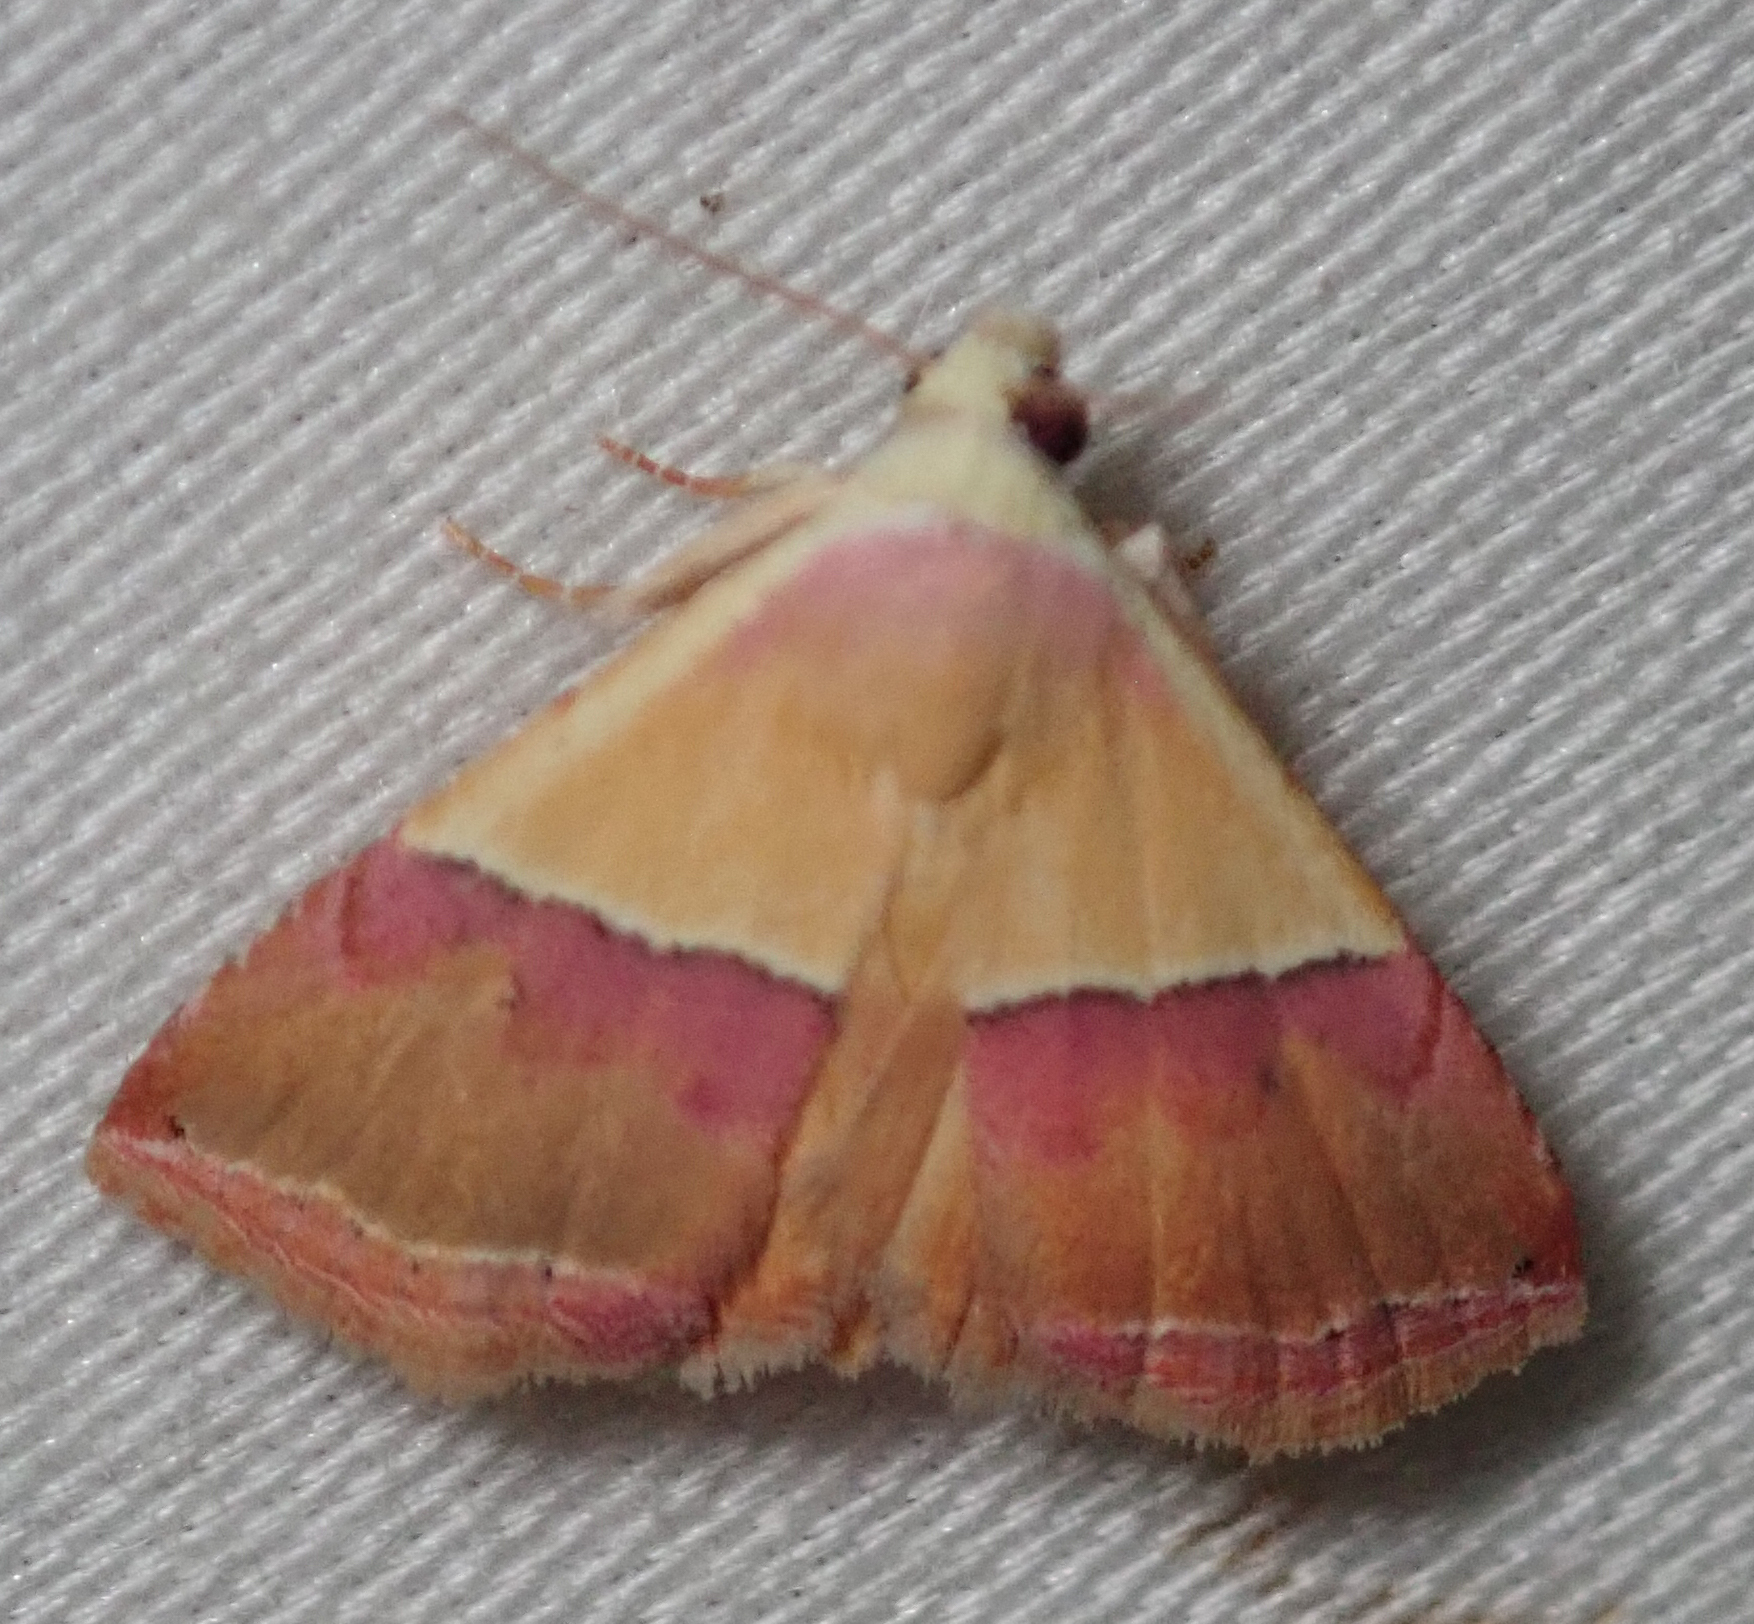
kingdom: Animalia
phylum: Arthropoda
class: Insecta
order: Lepidoptera
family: Noctuidae
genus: Eublemma
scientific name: Eublemma caffrorum
